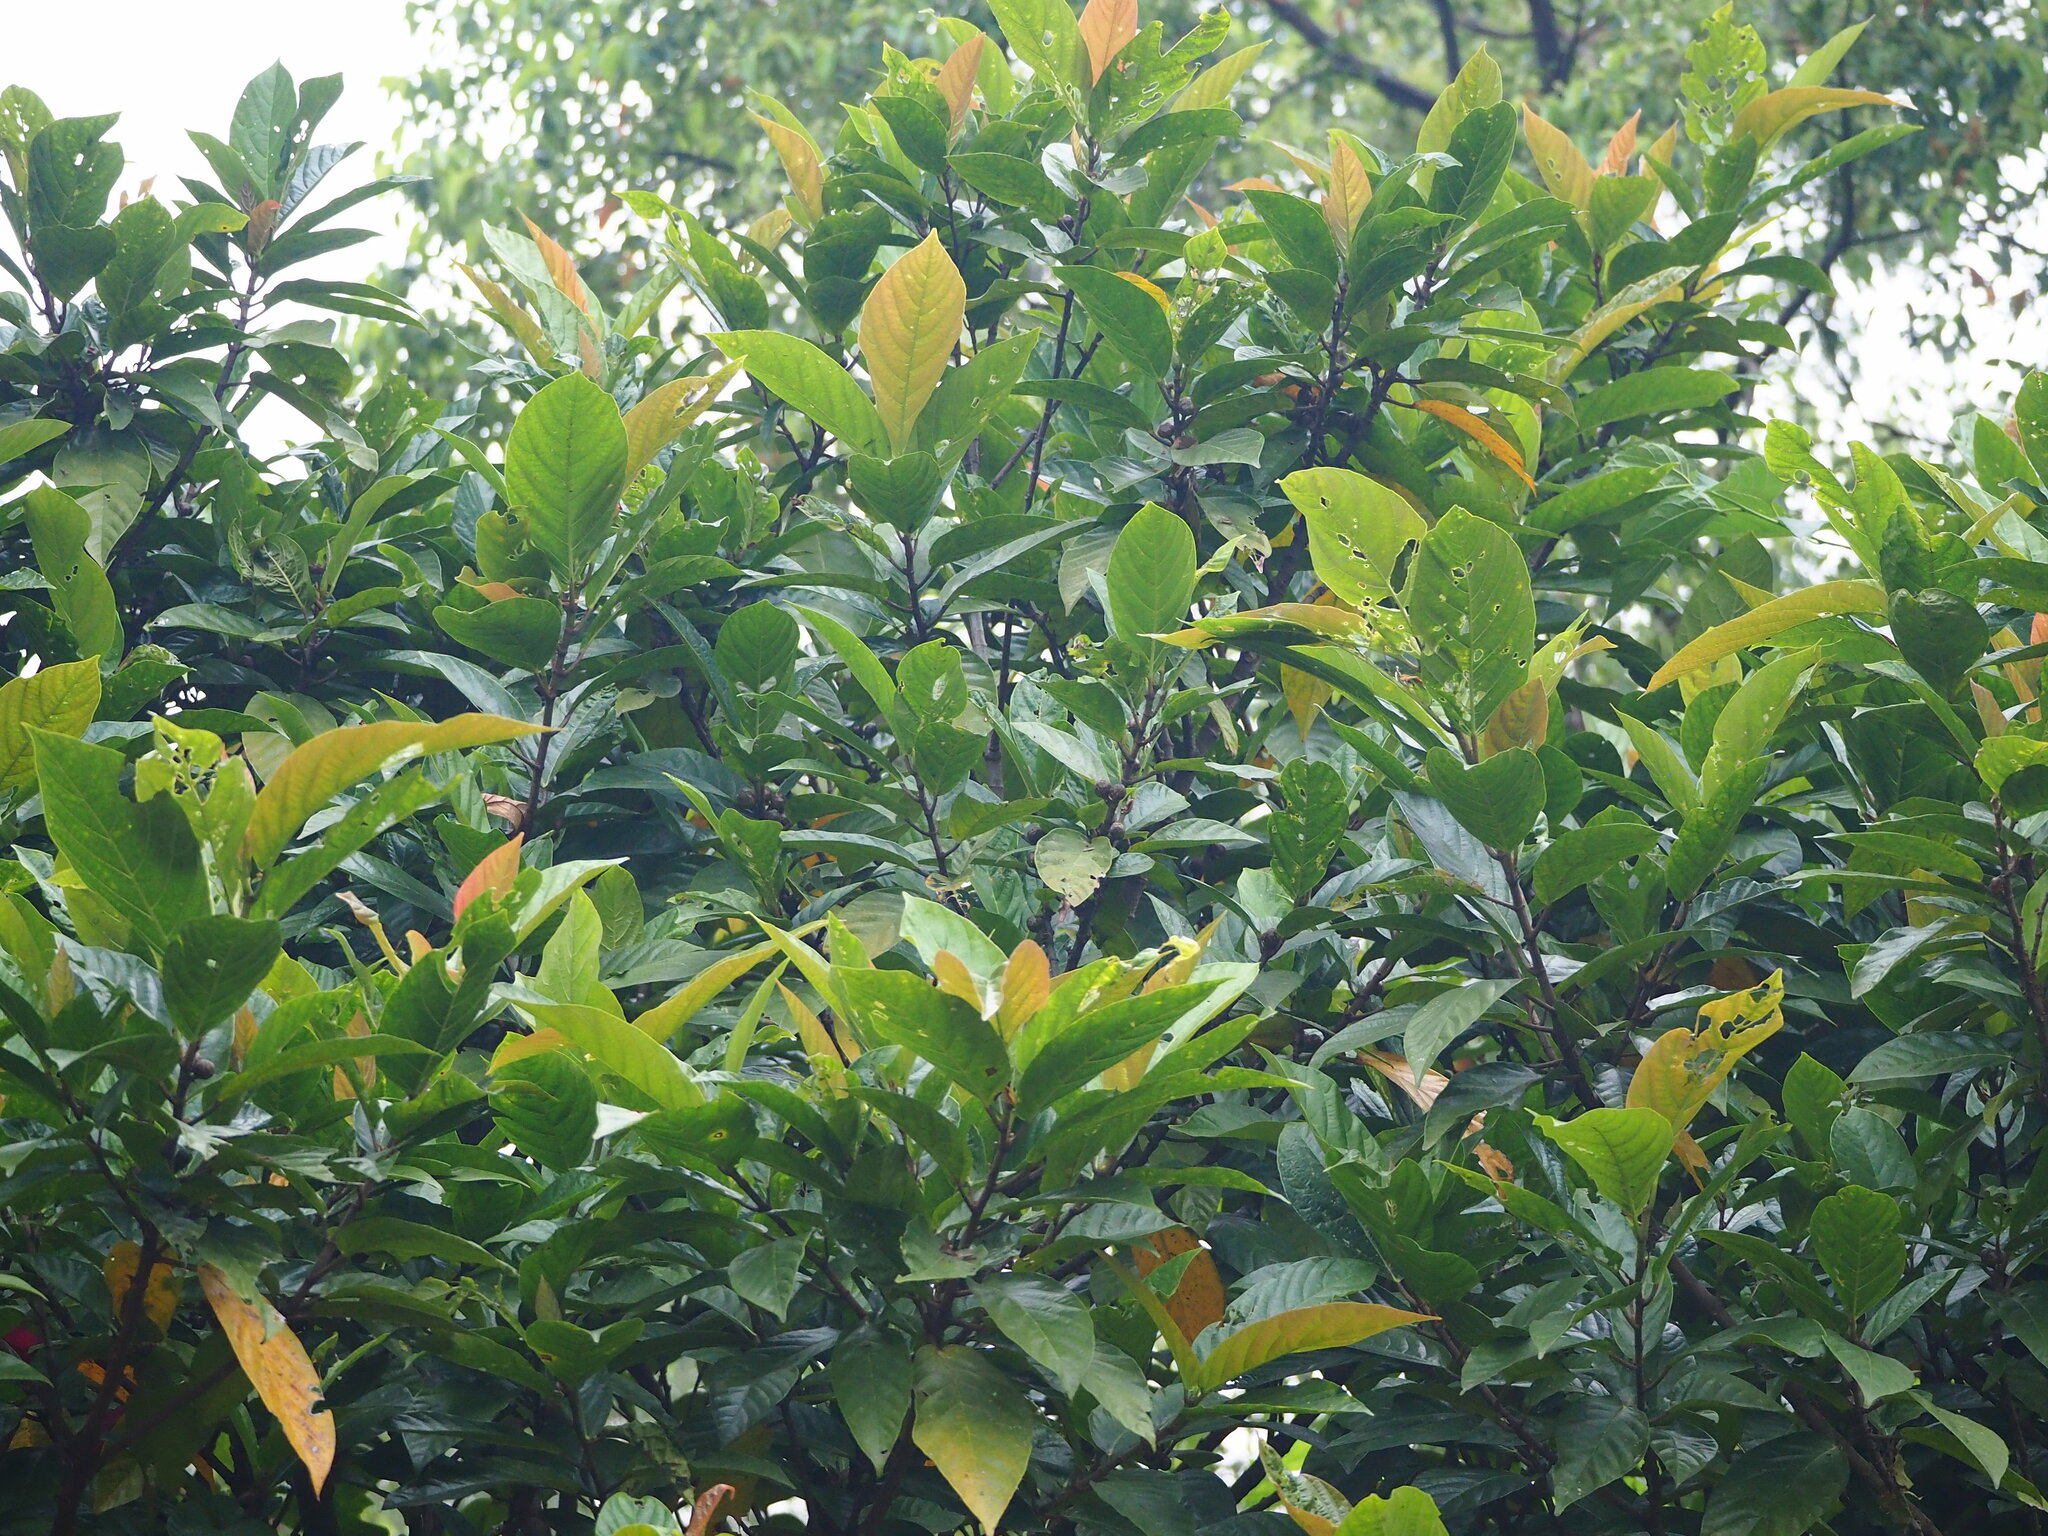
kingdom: Plantae
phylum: Tracheophyta
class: Magnoliopsida
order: Rosales
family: Moraceae
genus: Ficus
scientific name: Ficus benguetensis
